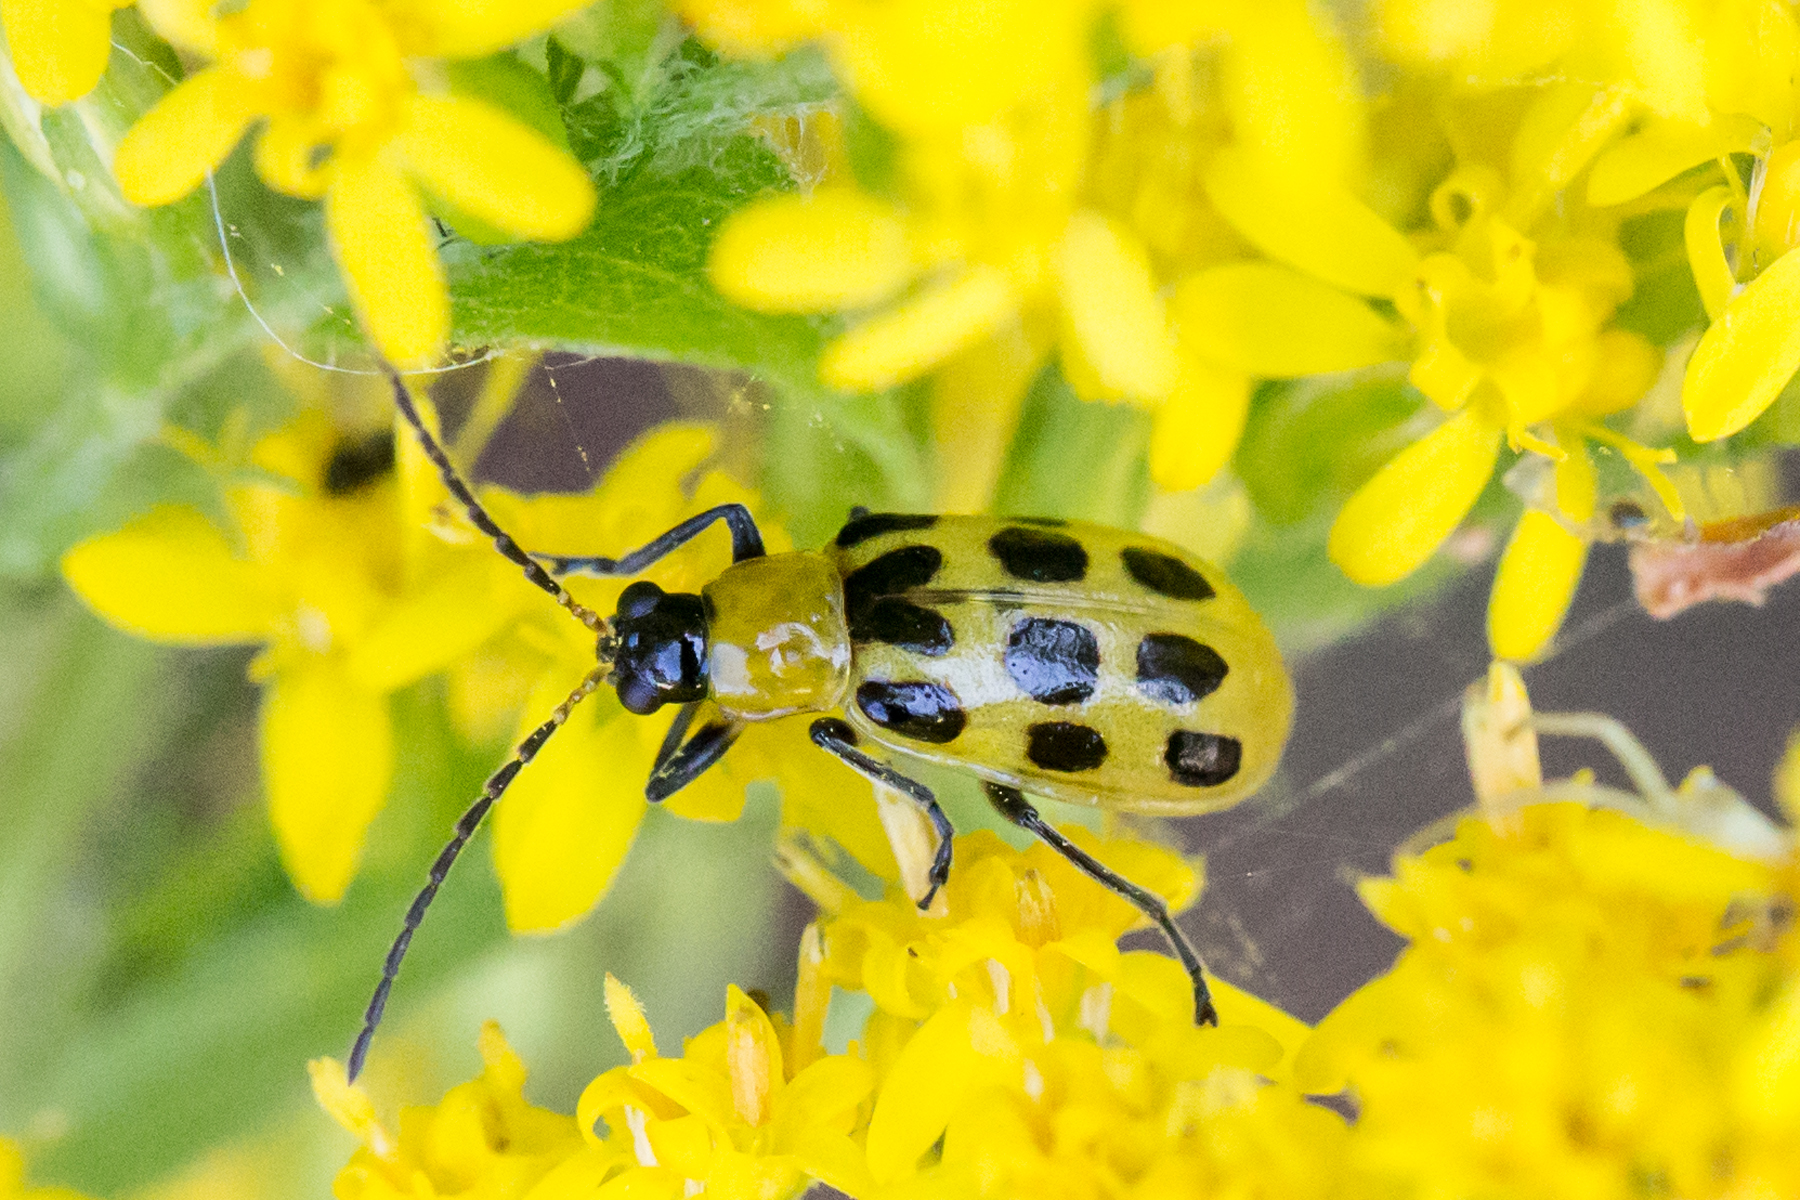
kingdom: Animalia
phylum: Arthropoda
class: Insecta
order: Coleoptera
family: Chrysomelidae
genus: Diabrotica
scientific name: Diabrotica undecimpunctata
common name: Spotted cucumber beetle
